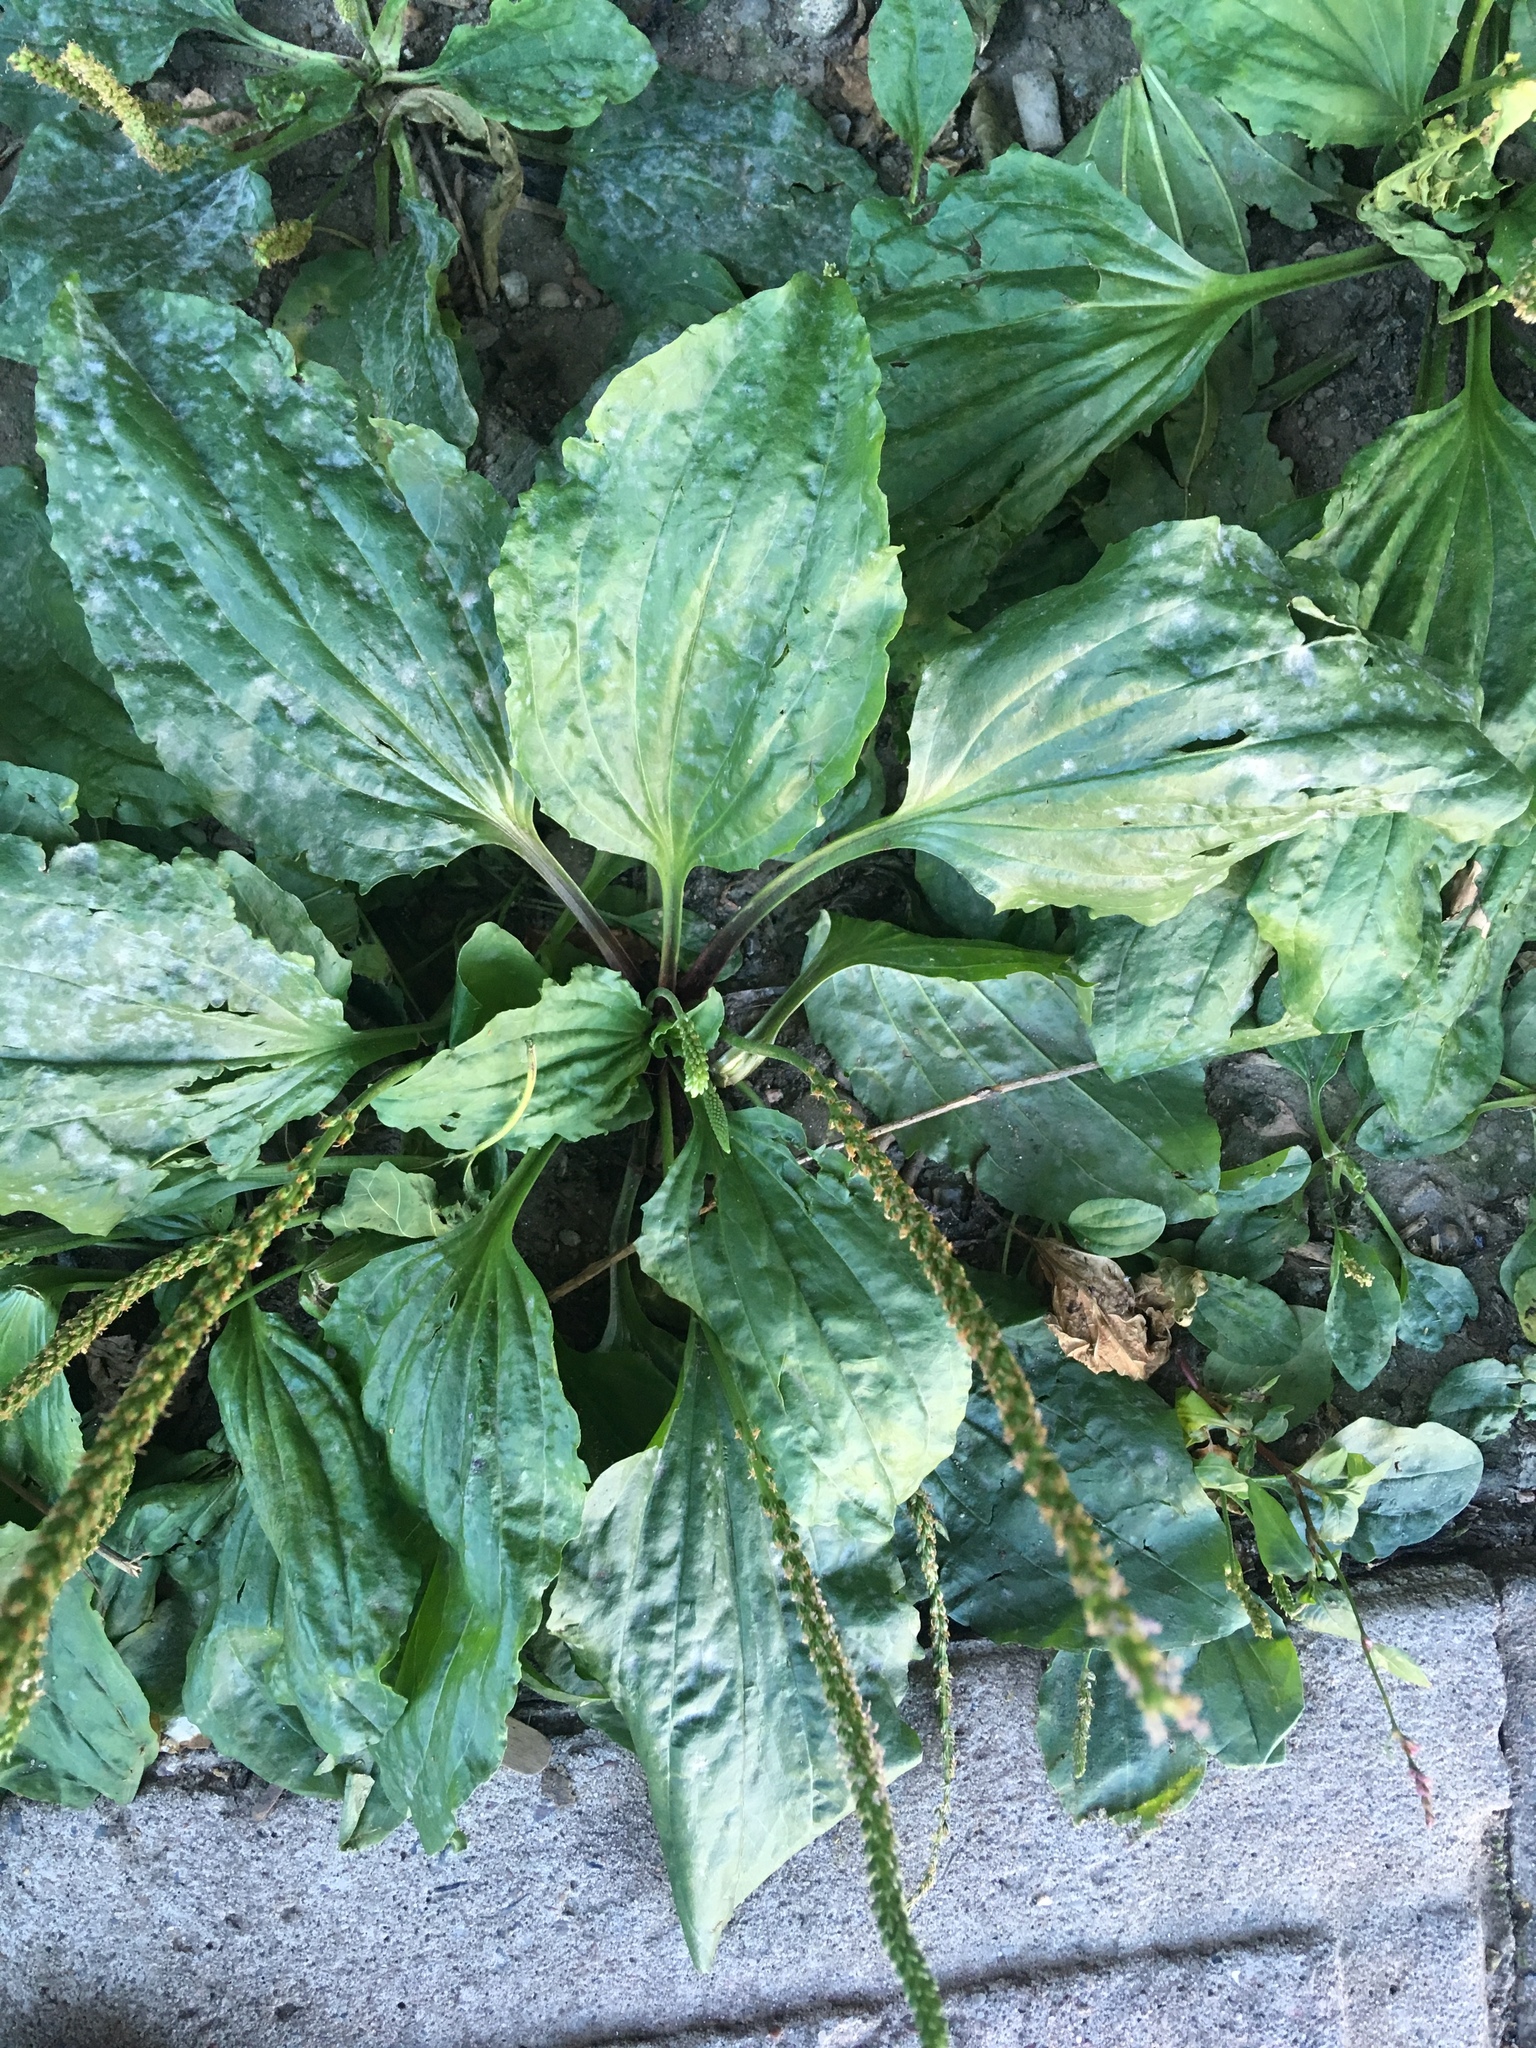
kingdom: Plantae
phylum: Tracheophyta
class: Magnoliopsida
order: Lamiales
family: Plantaginaceae
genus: Plantago
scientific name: Plantago rugelii
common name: American plantain
